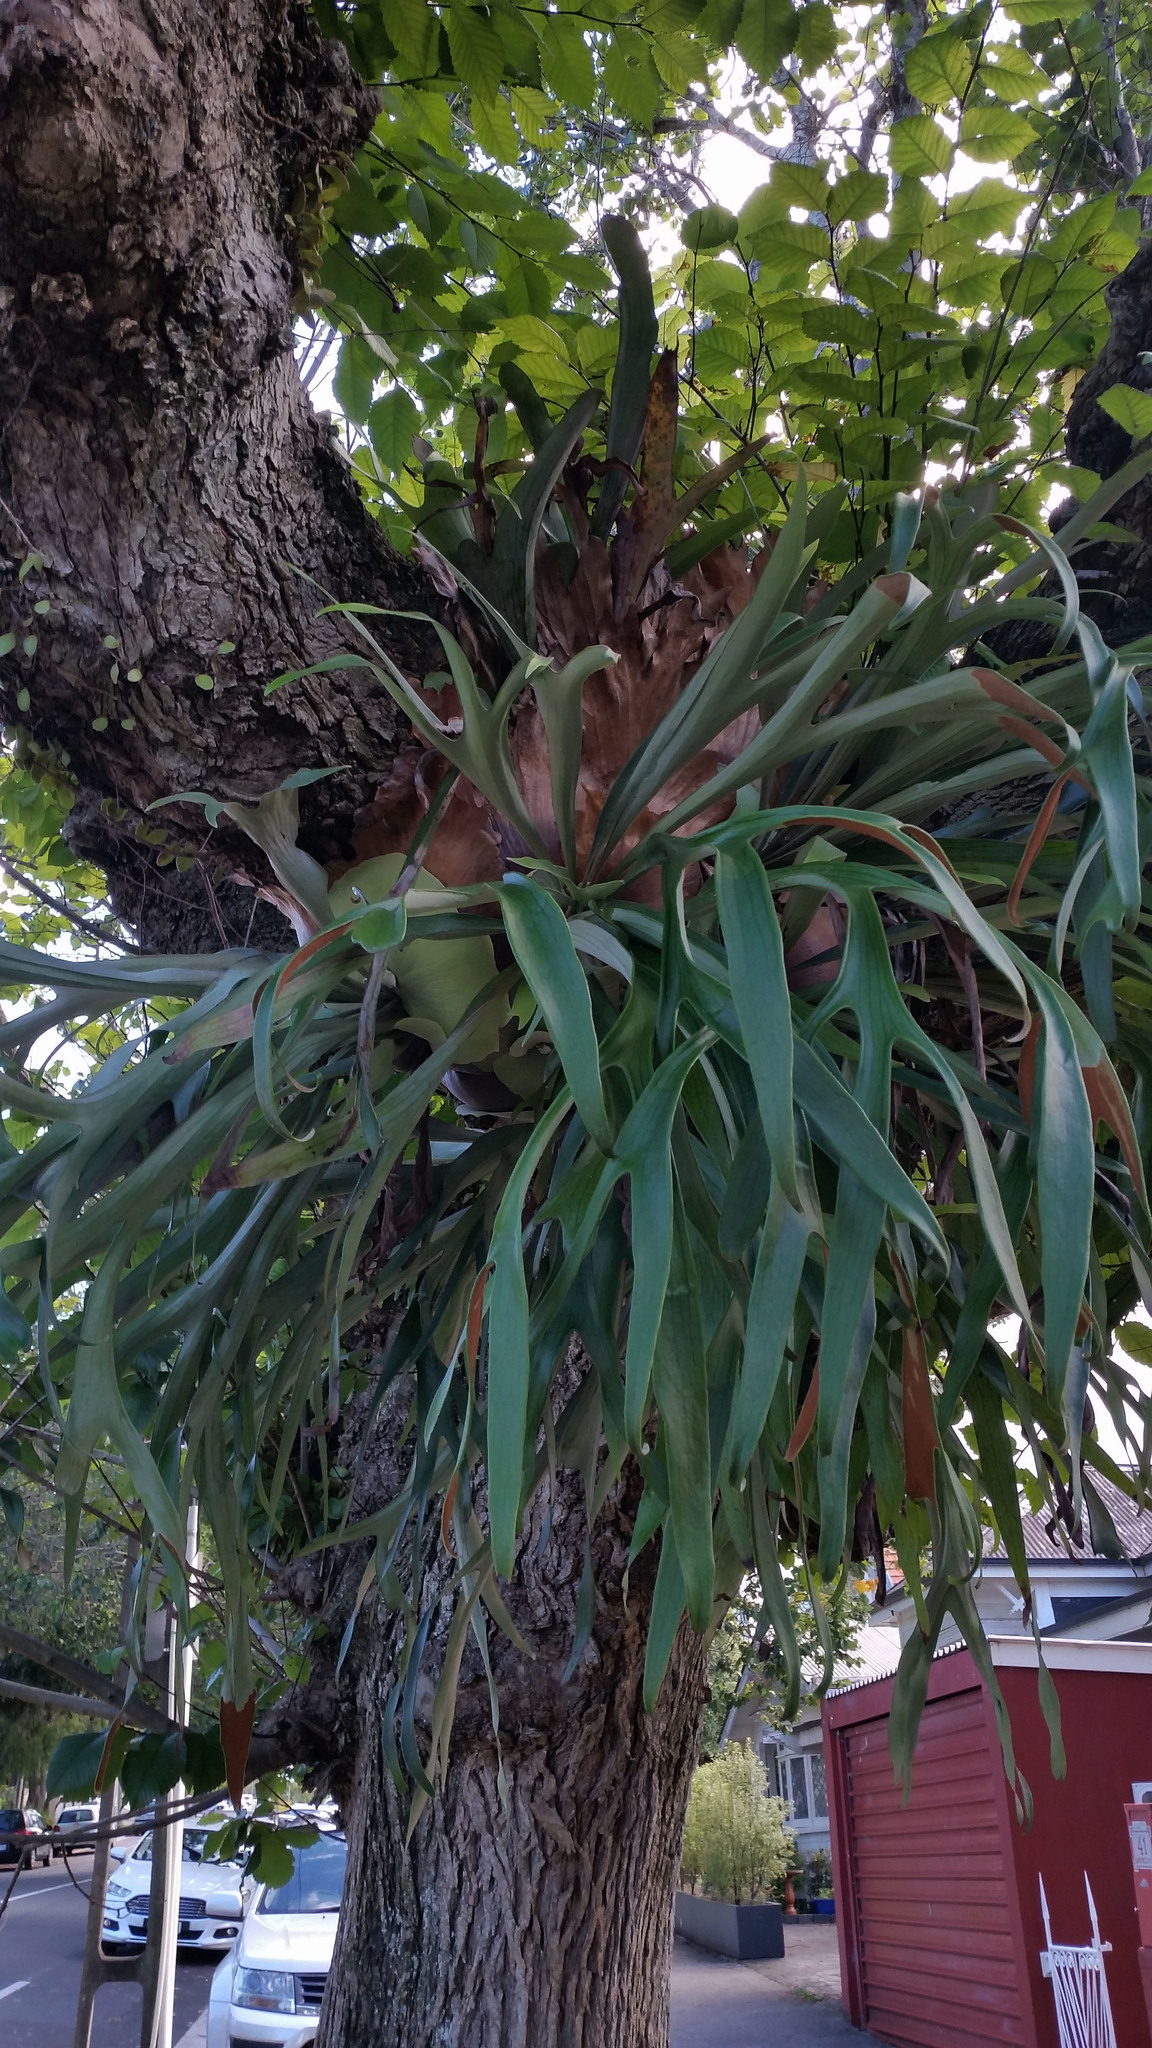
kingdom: Plantae
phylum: Tracheophyta
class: Polypodiopsida
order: Polypodiales
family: Polypodiaceae
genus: Platycerium
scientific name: Platycerium bifurcatum
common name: Elkhorn fern
